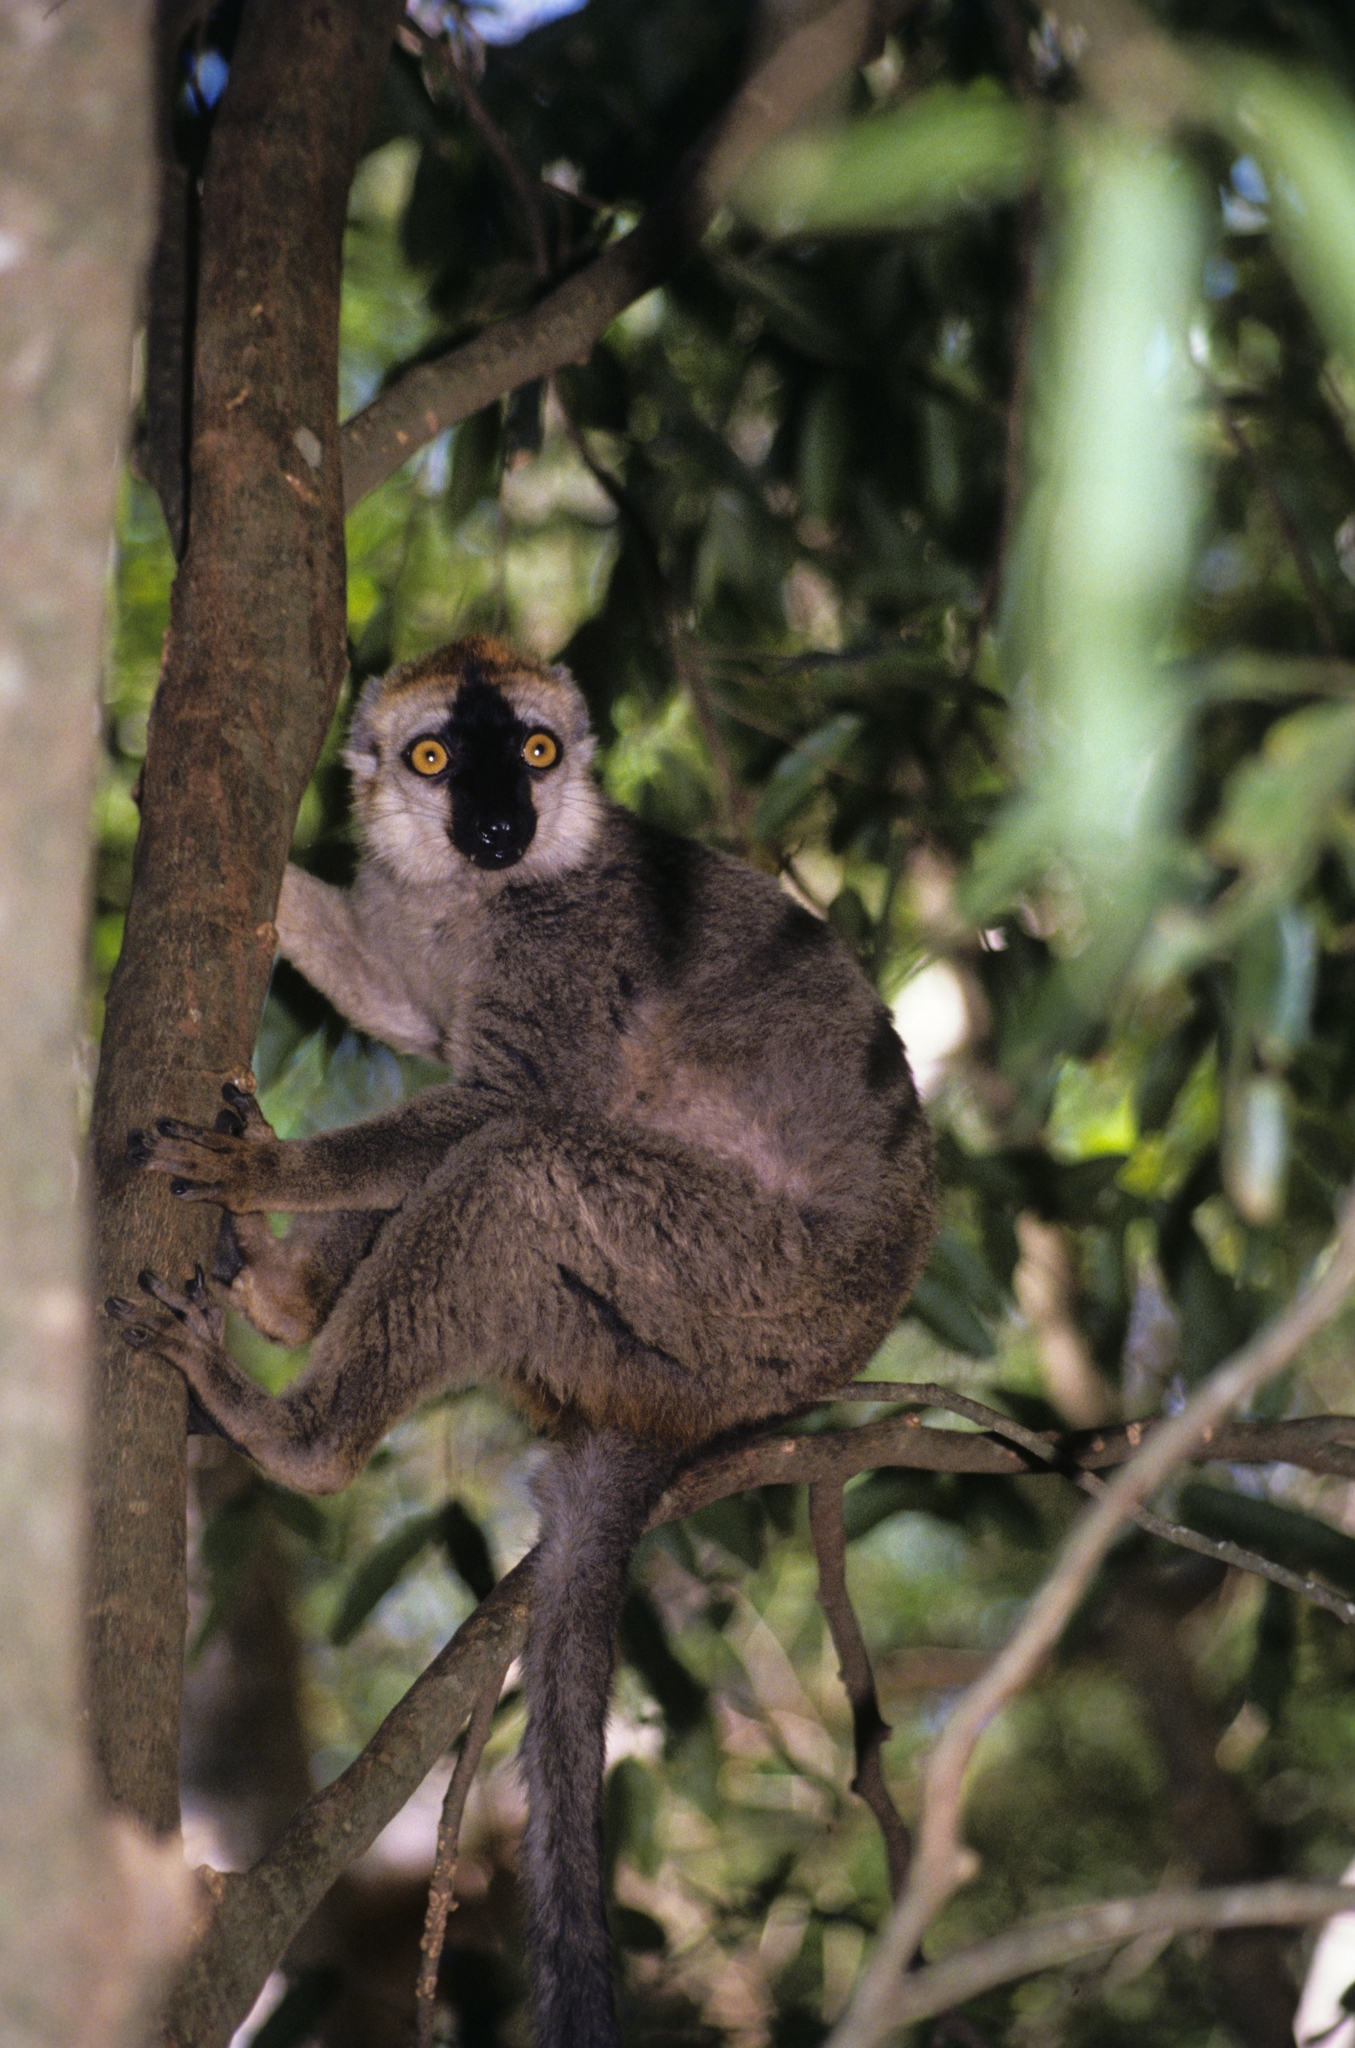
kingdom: Animalia
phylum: Chordata
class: Mammalia
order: Primates
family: Lemuridae
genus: Eulemur
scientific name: Eulemur
